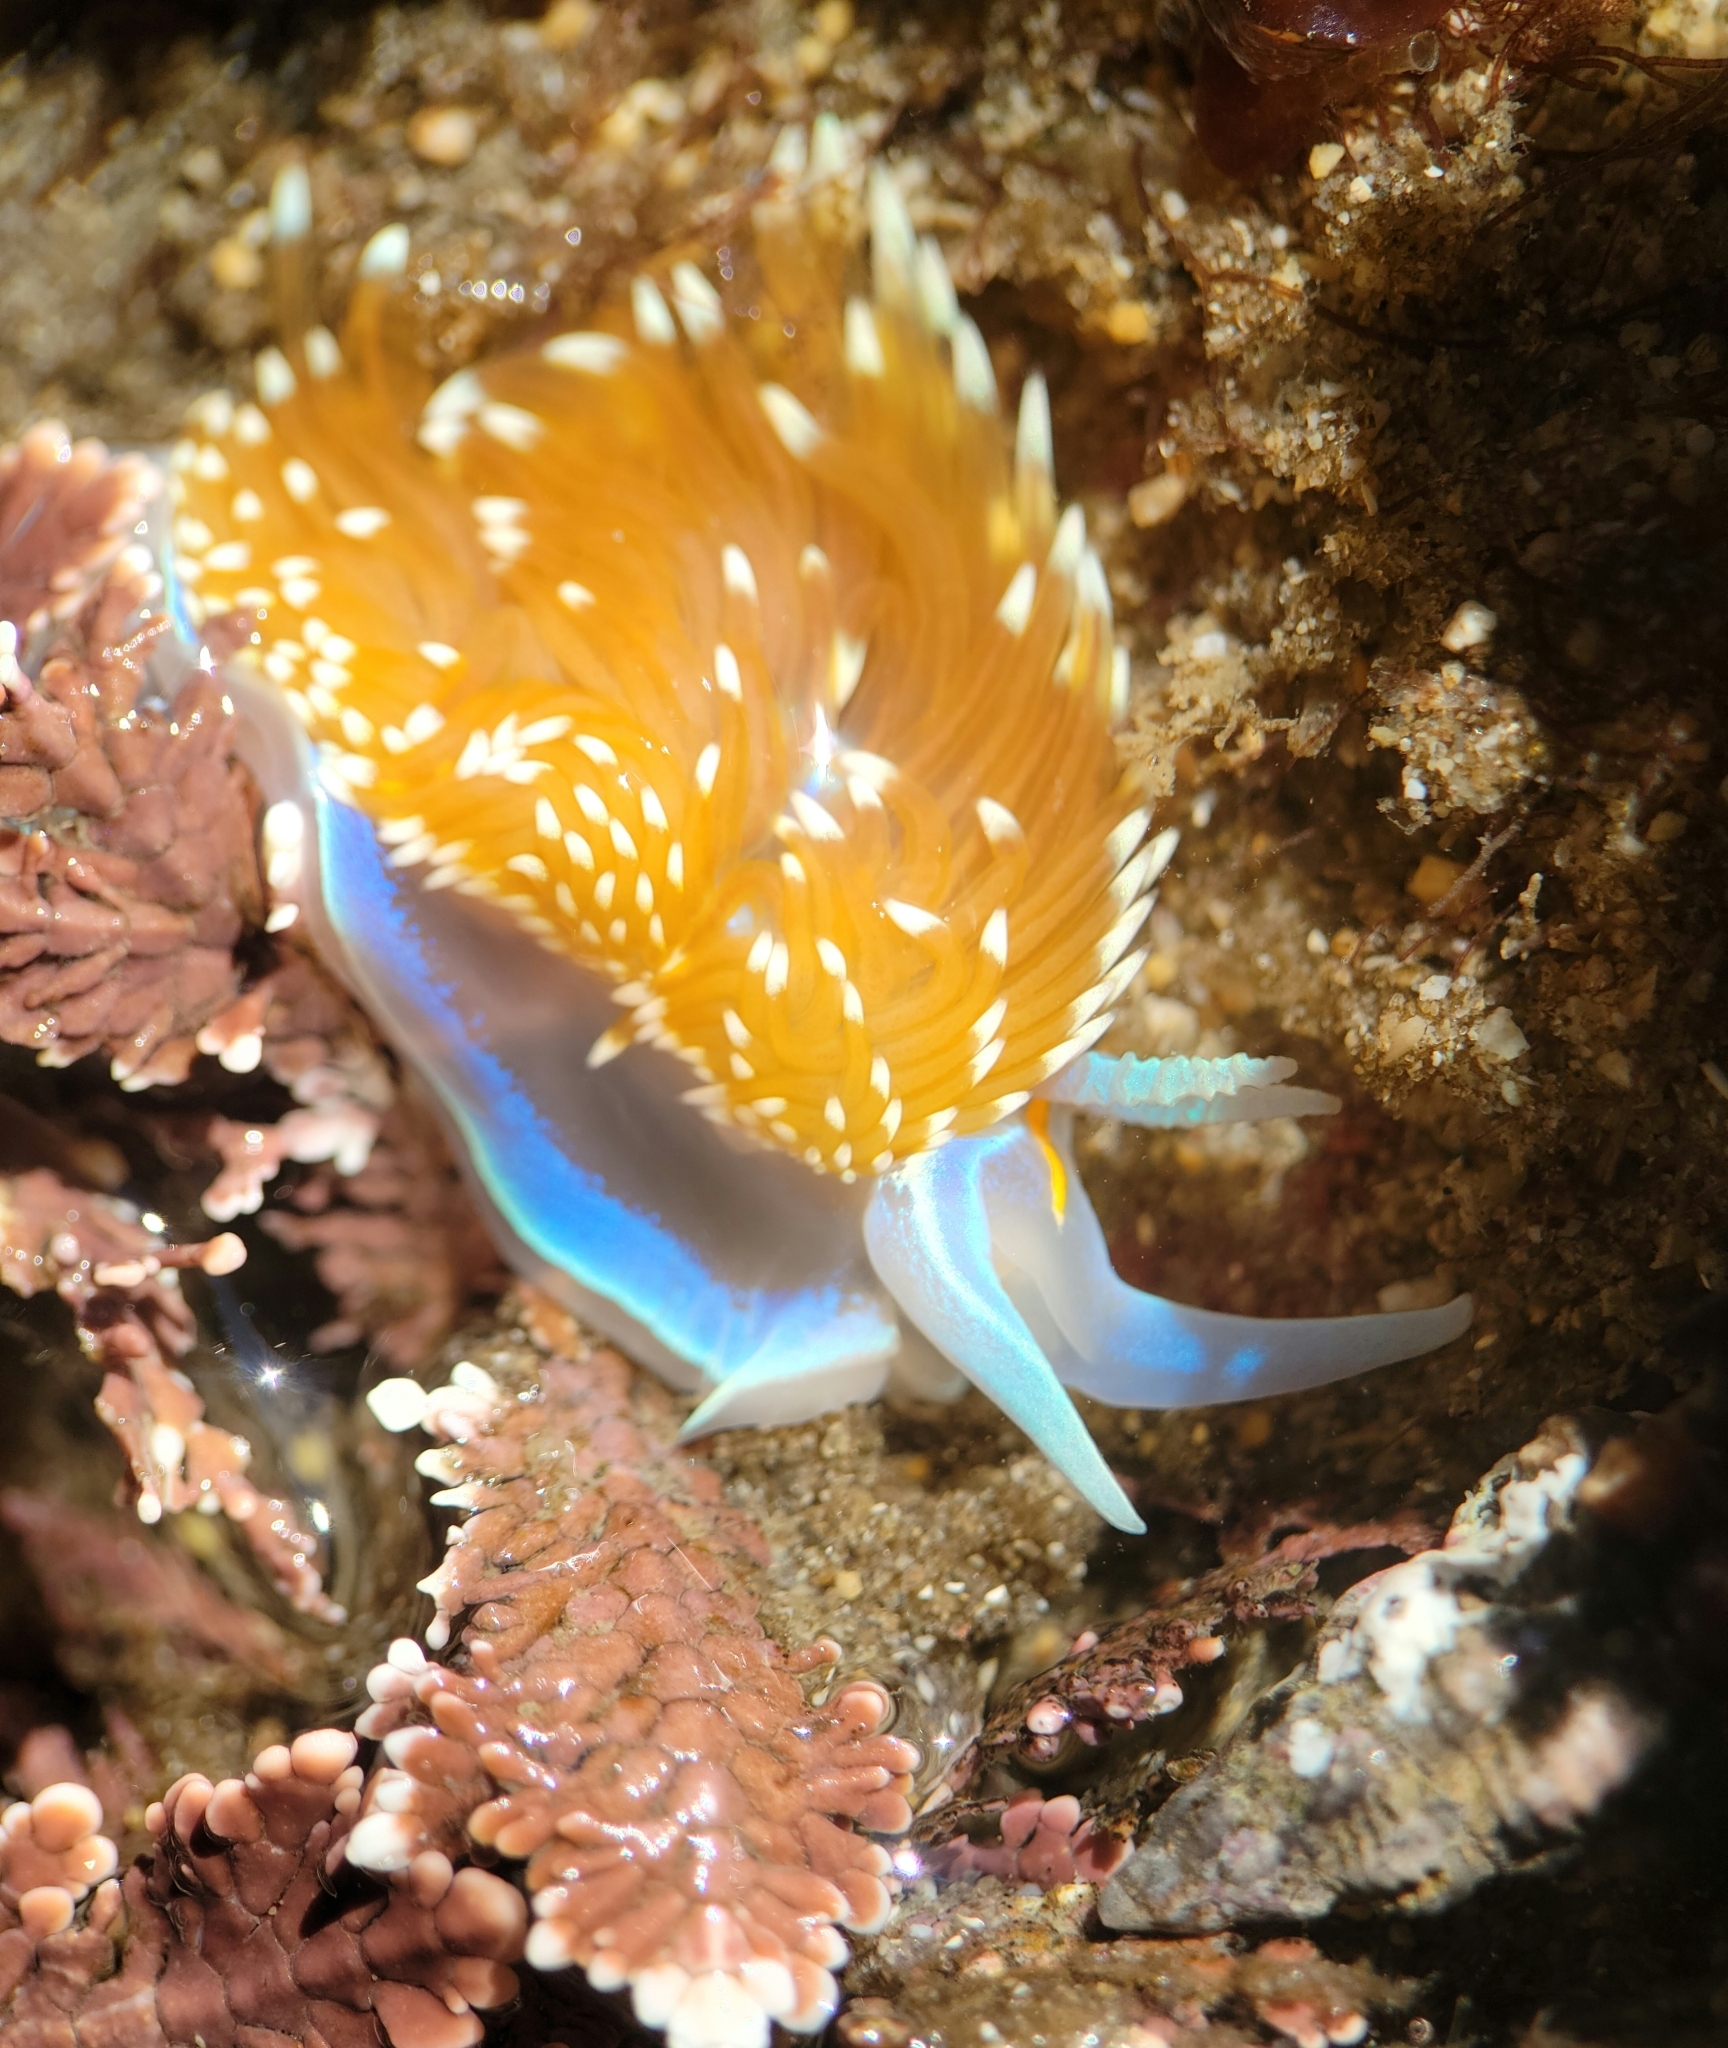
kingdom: Animalia
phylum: Mollusca
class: Gastropoda
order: Nudibranchia
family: Myrrhinidae
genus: Hermissenda
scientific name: Hermissenda opalescens
